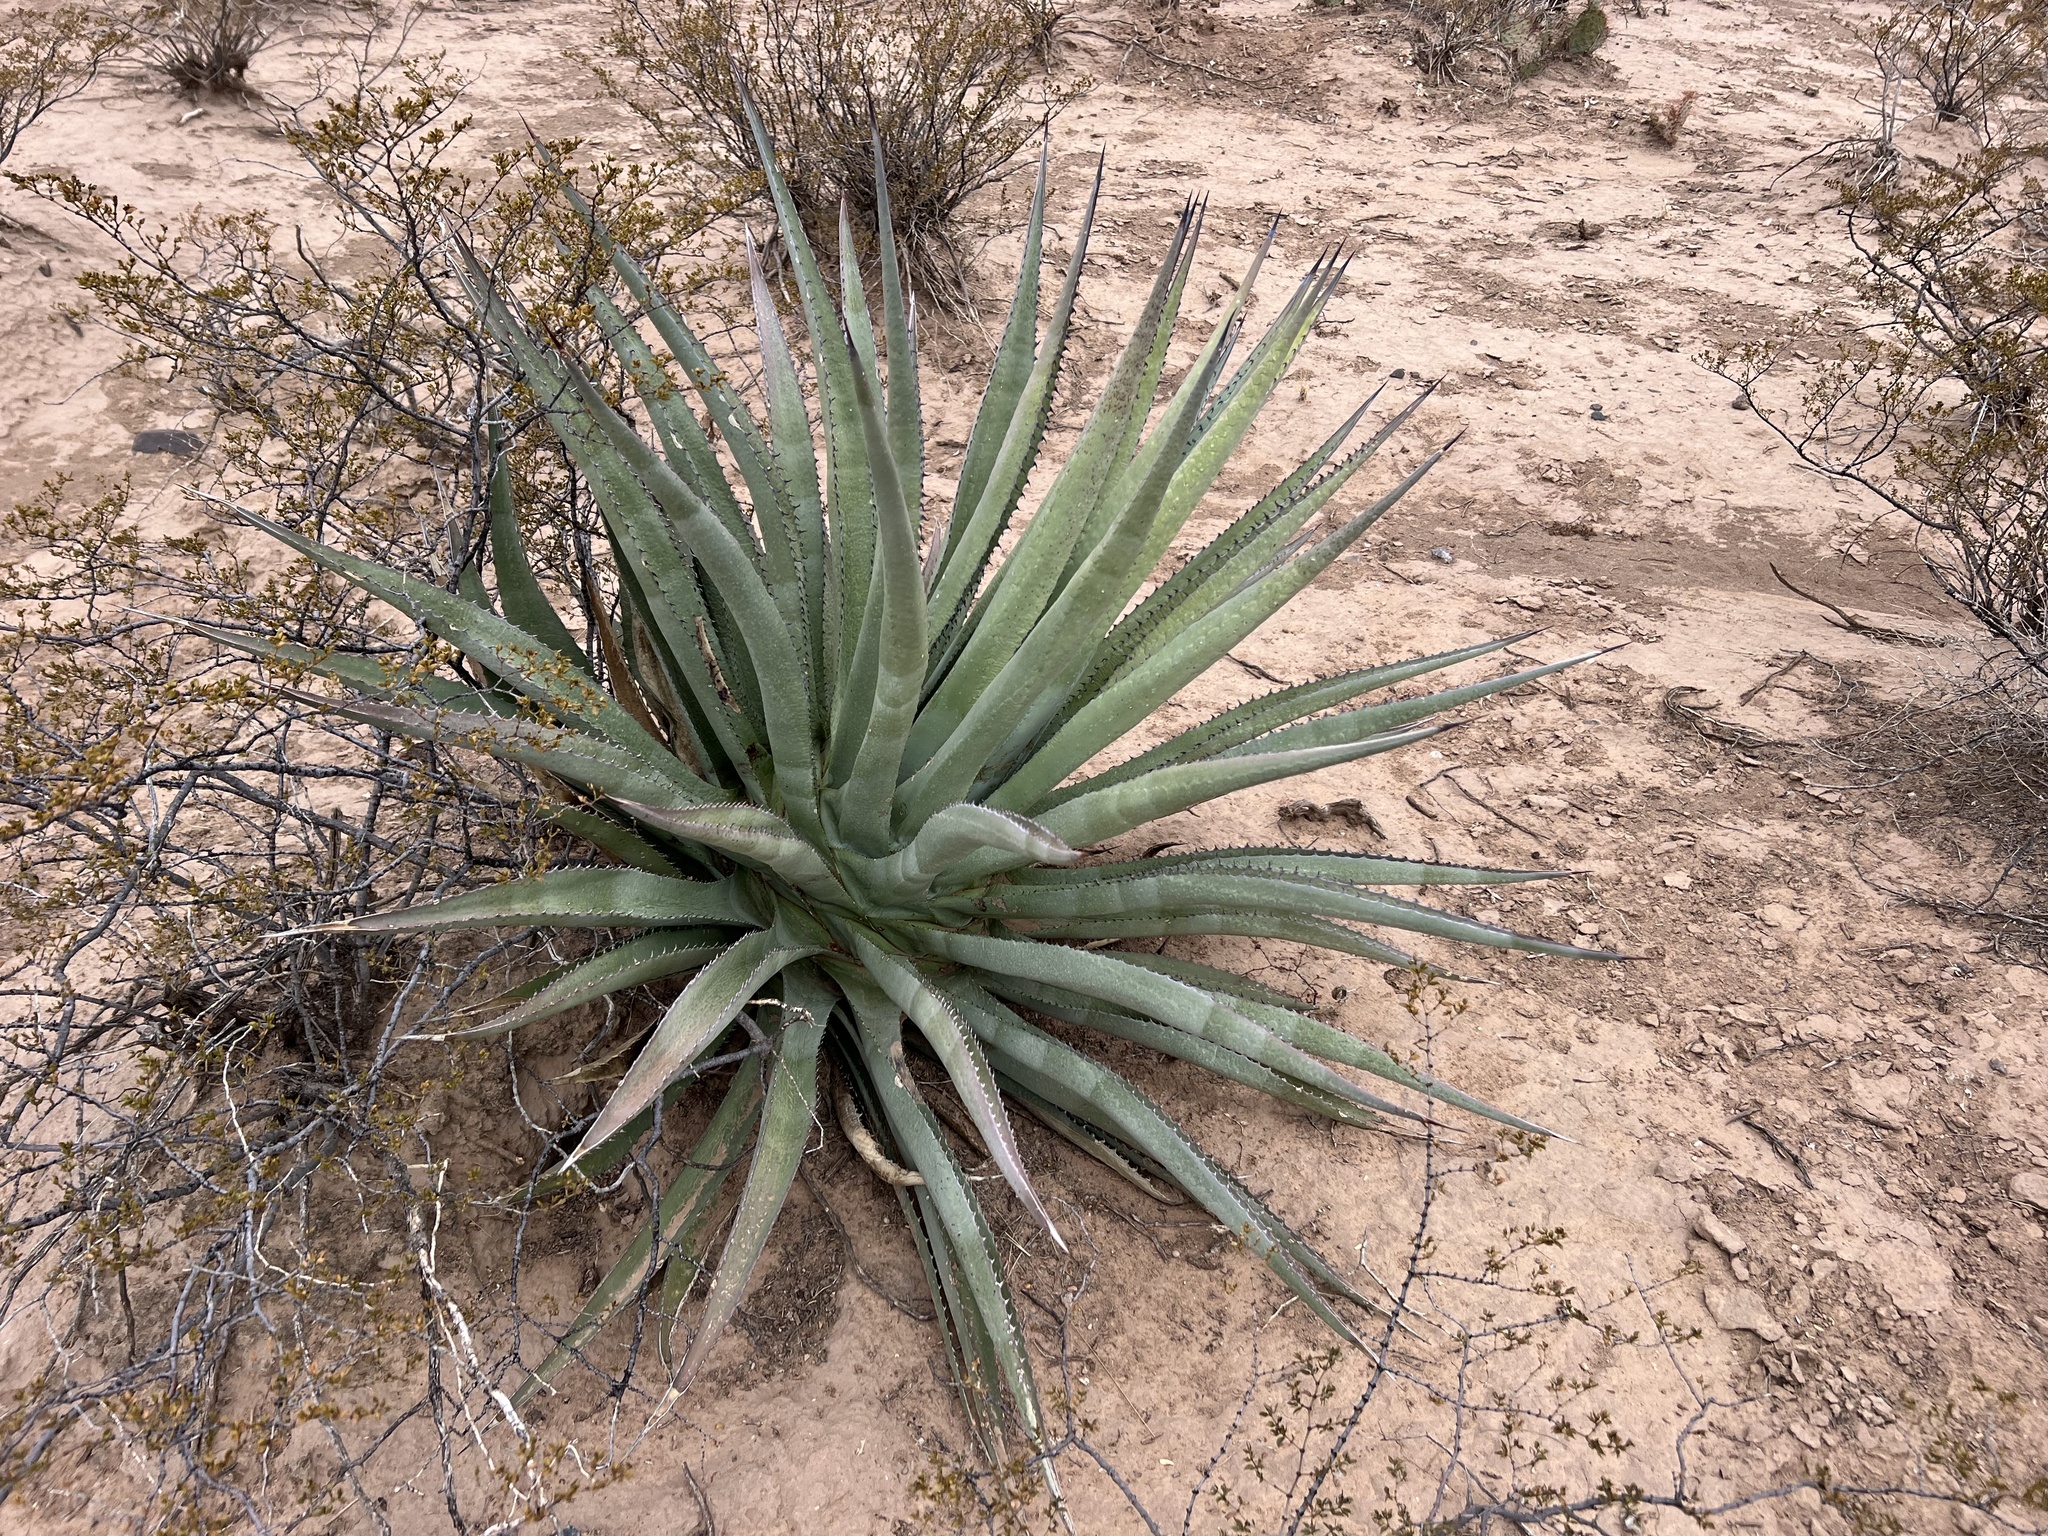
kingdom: Plantae
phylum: Tracheophyta
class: Liliopsida
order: Asparagales
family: Asparagaceae
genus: Agave
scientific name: Agave palmeri
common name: Palmer agave
